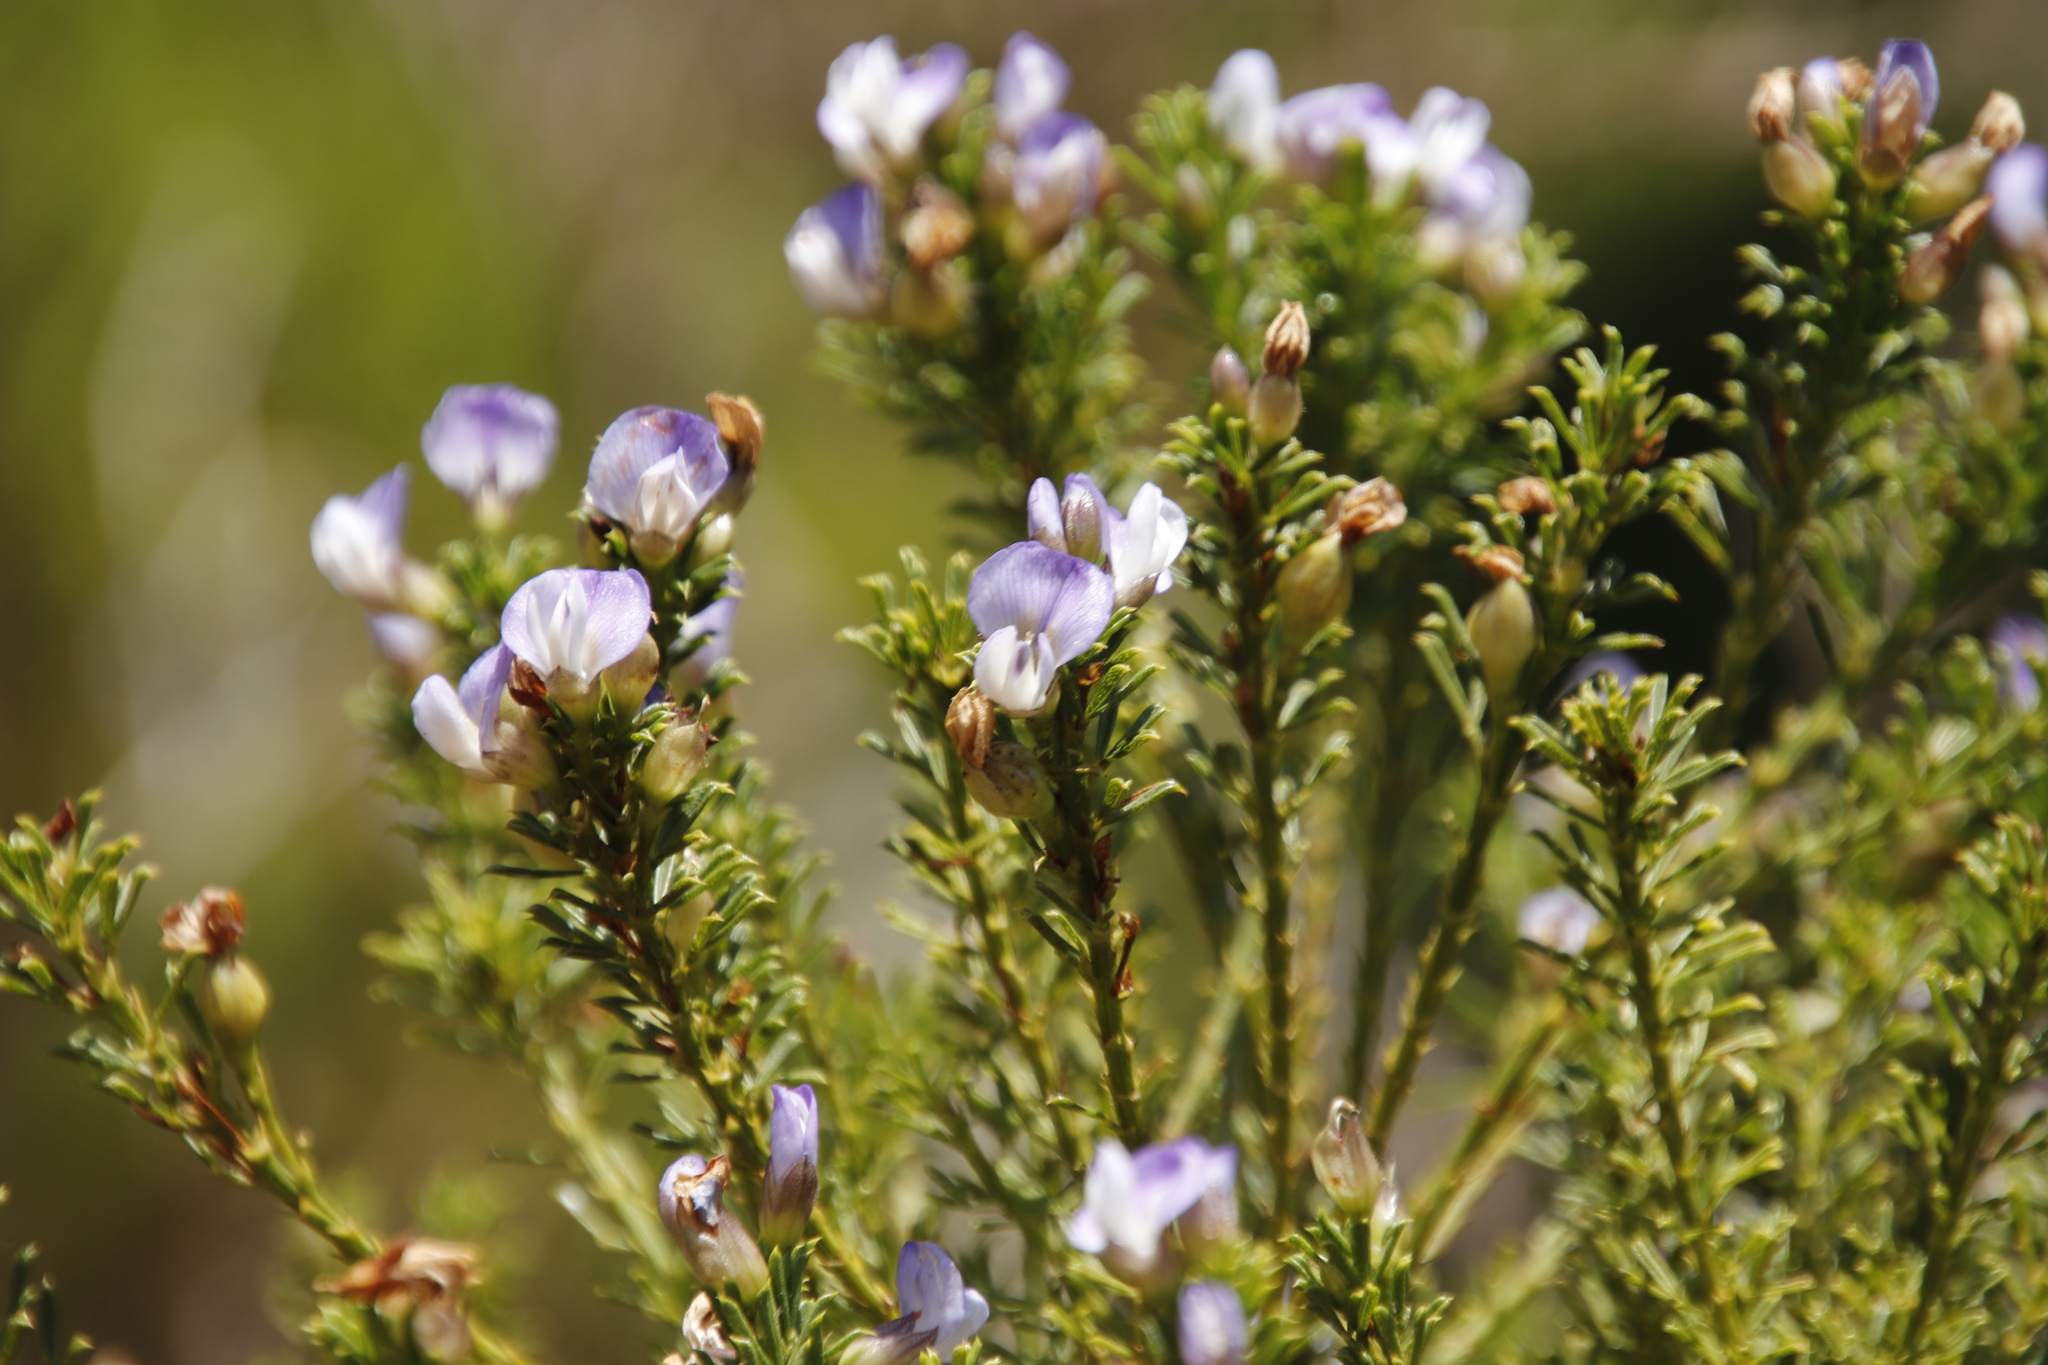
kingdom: Plantae
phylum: Tracheophyta
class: Magnoliopsida
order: Fabales
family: Fabaceae
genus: Psoralea
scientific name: Psoralea aculeata
